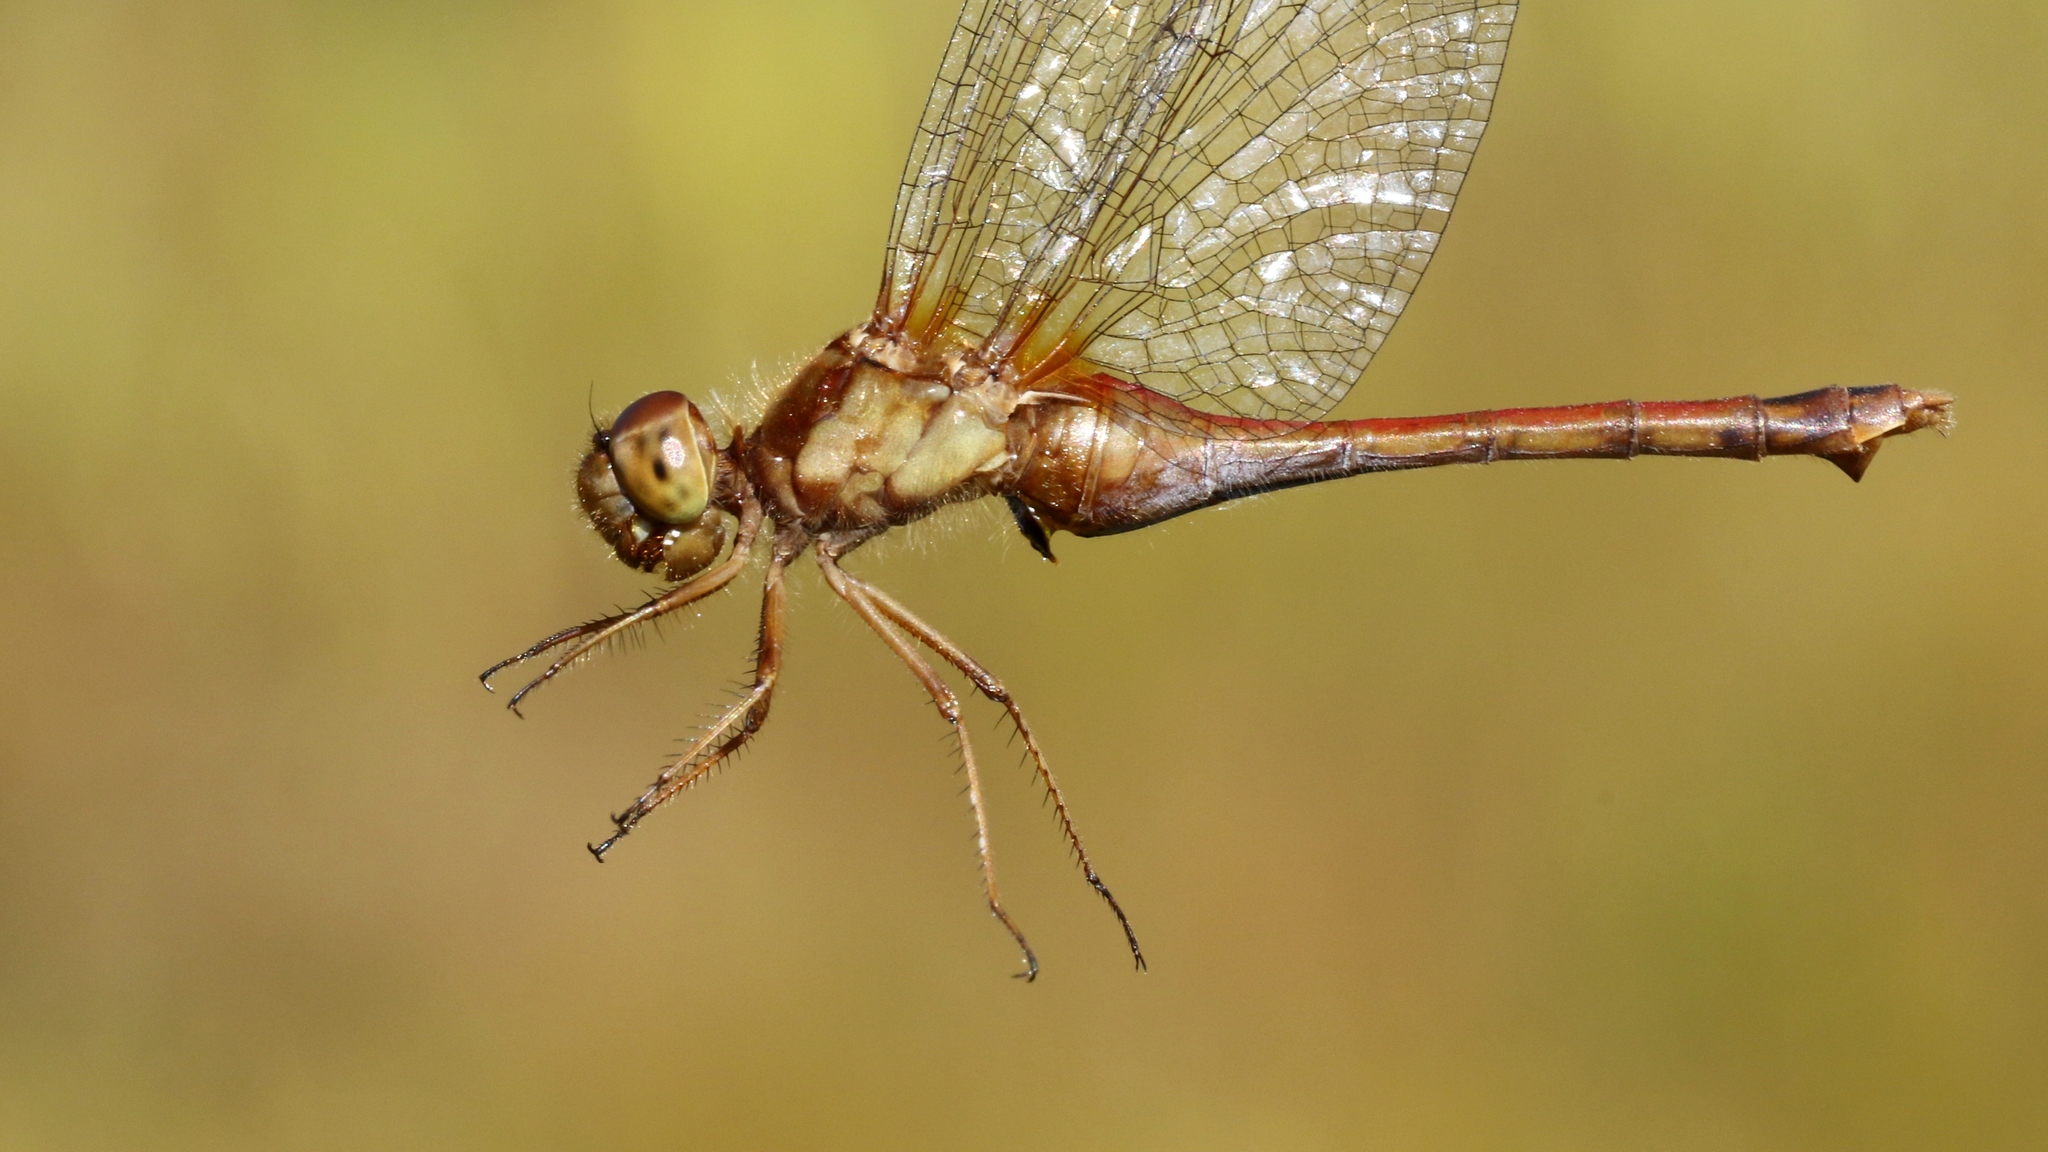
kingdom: Animalia
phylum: Arthropoda
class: Insecta
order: Odonata
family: Libellulidae
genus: Sympetrum
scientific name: Sympetrum vicinum
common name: Autumn meadowhawk
